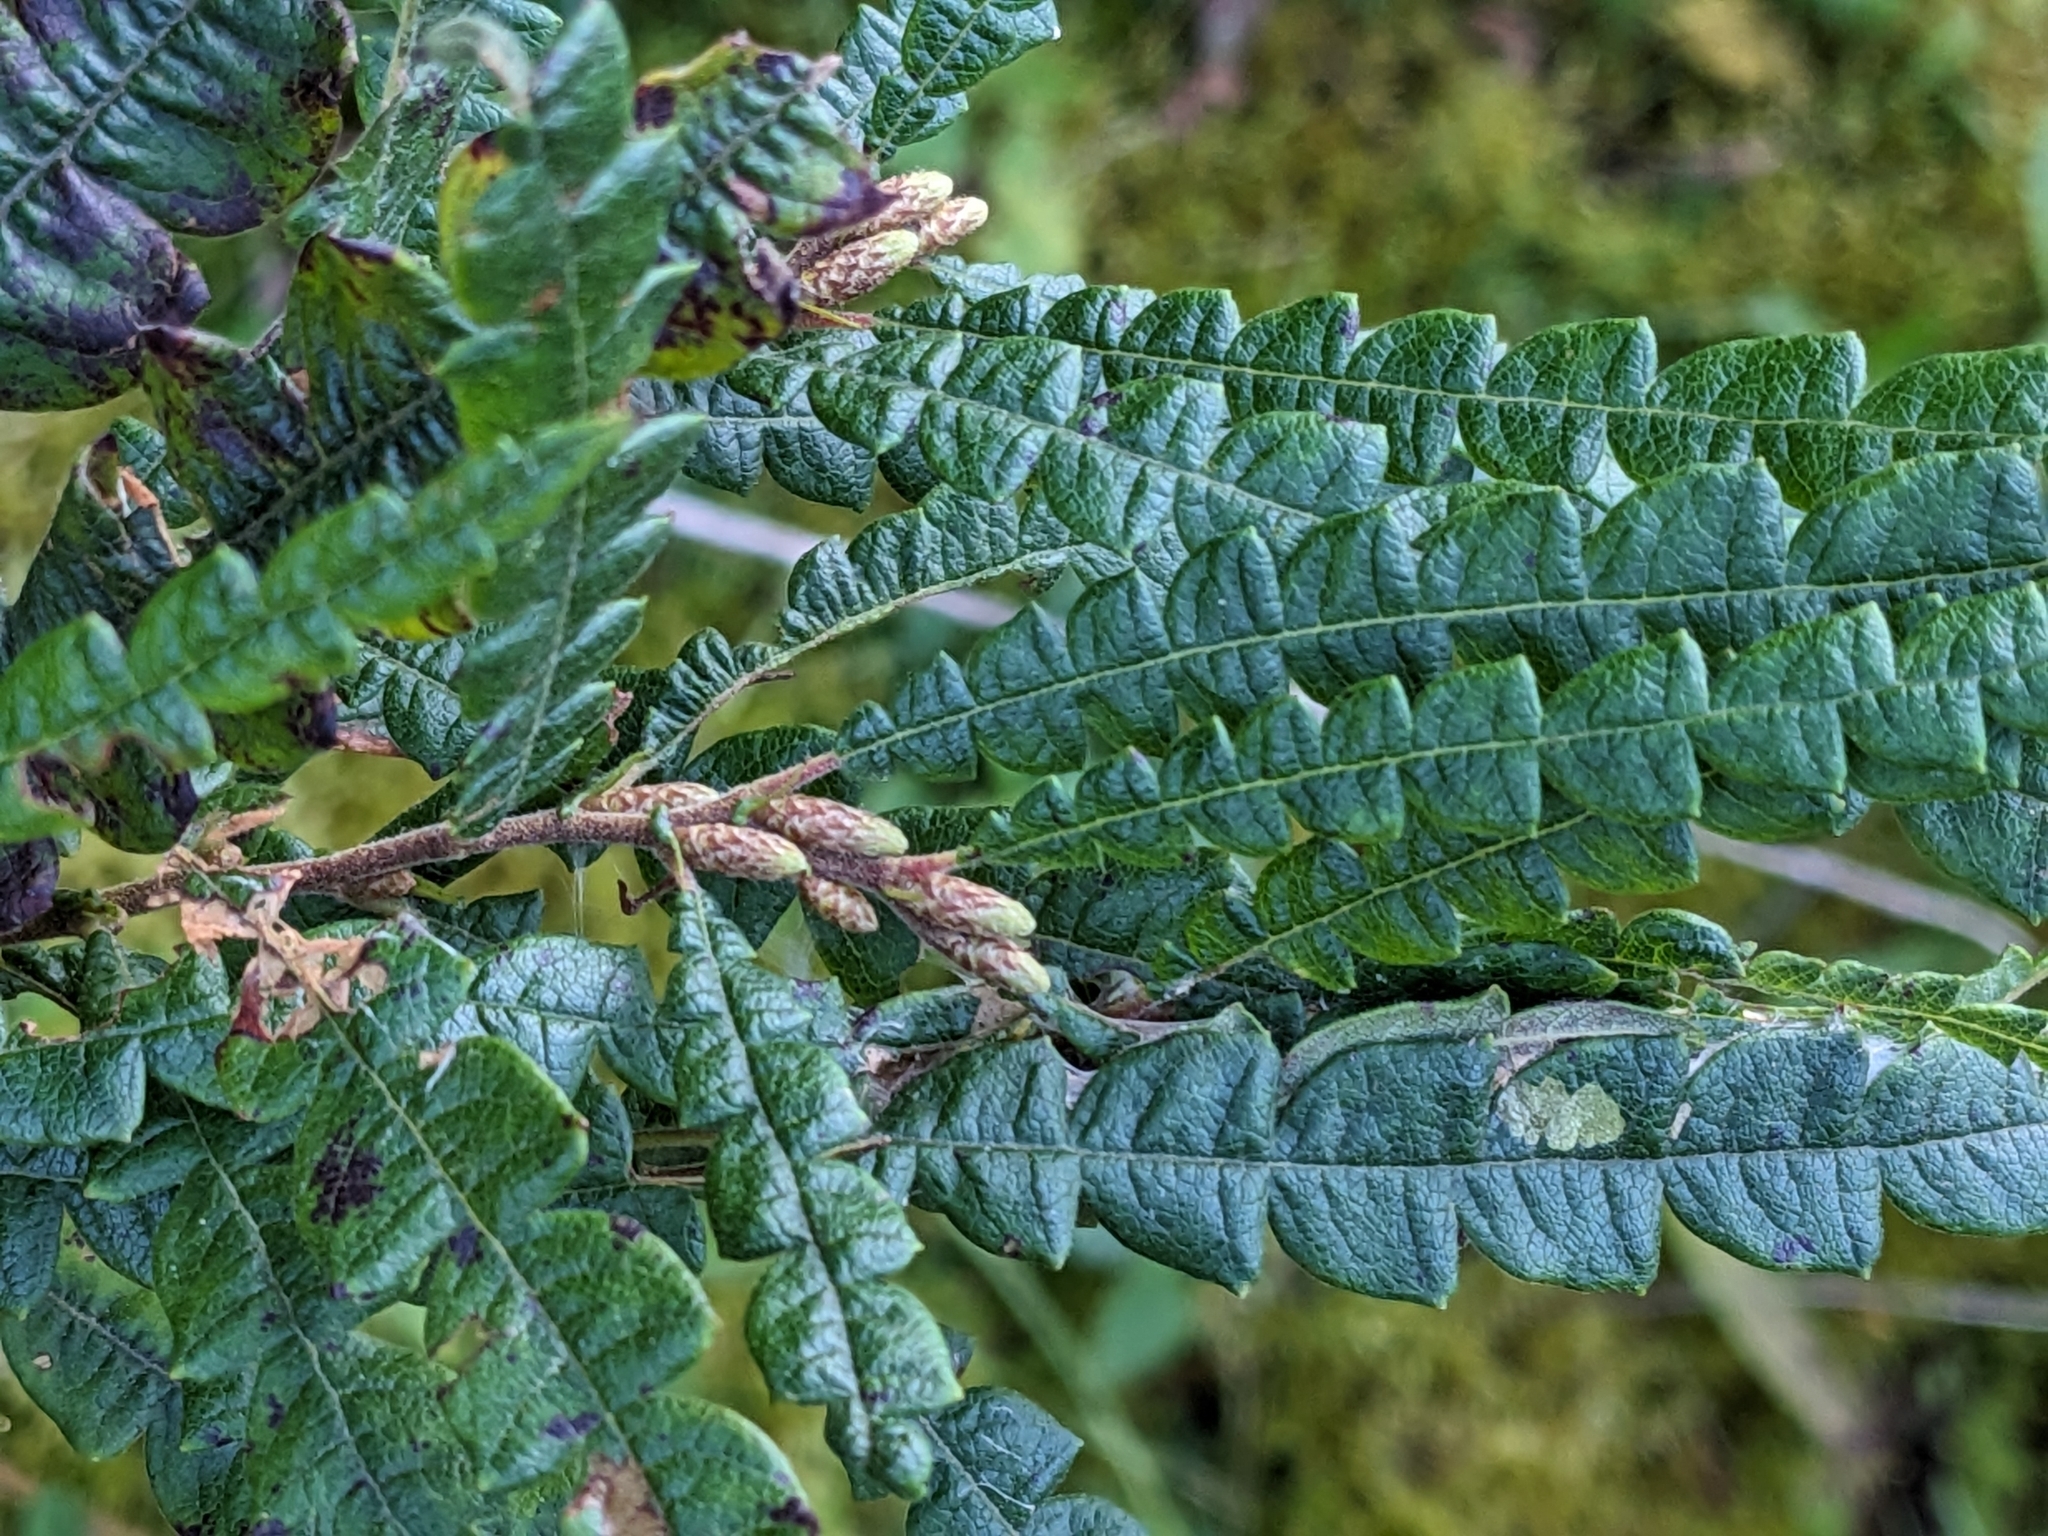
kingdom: Plantae
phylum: Tracheophyta
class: Magnoliopsida
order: Fagales
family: Myricaceae
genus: Comptonia
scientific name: Comptonia peregrina
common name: Sweet-fern
